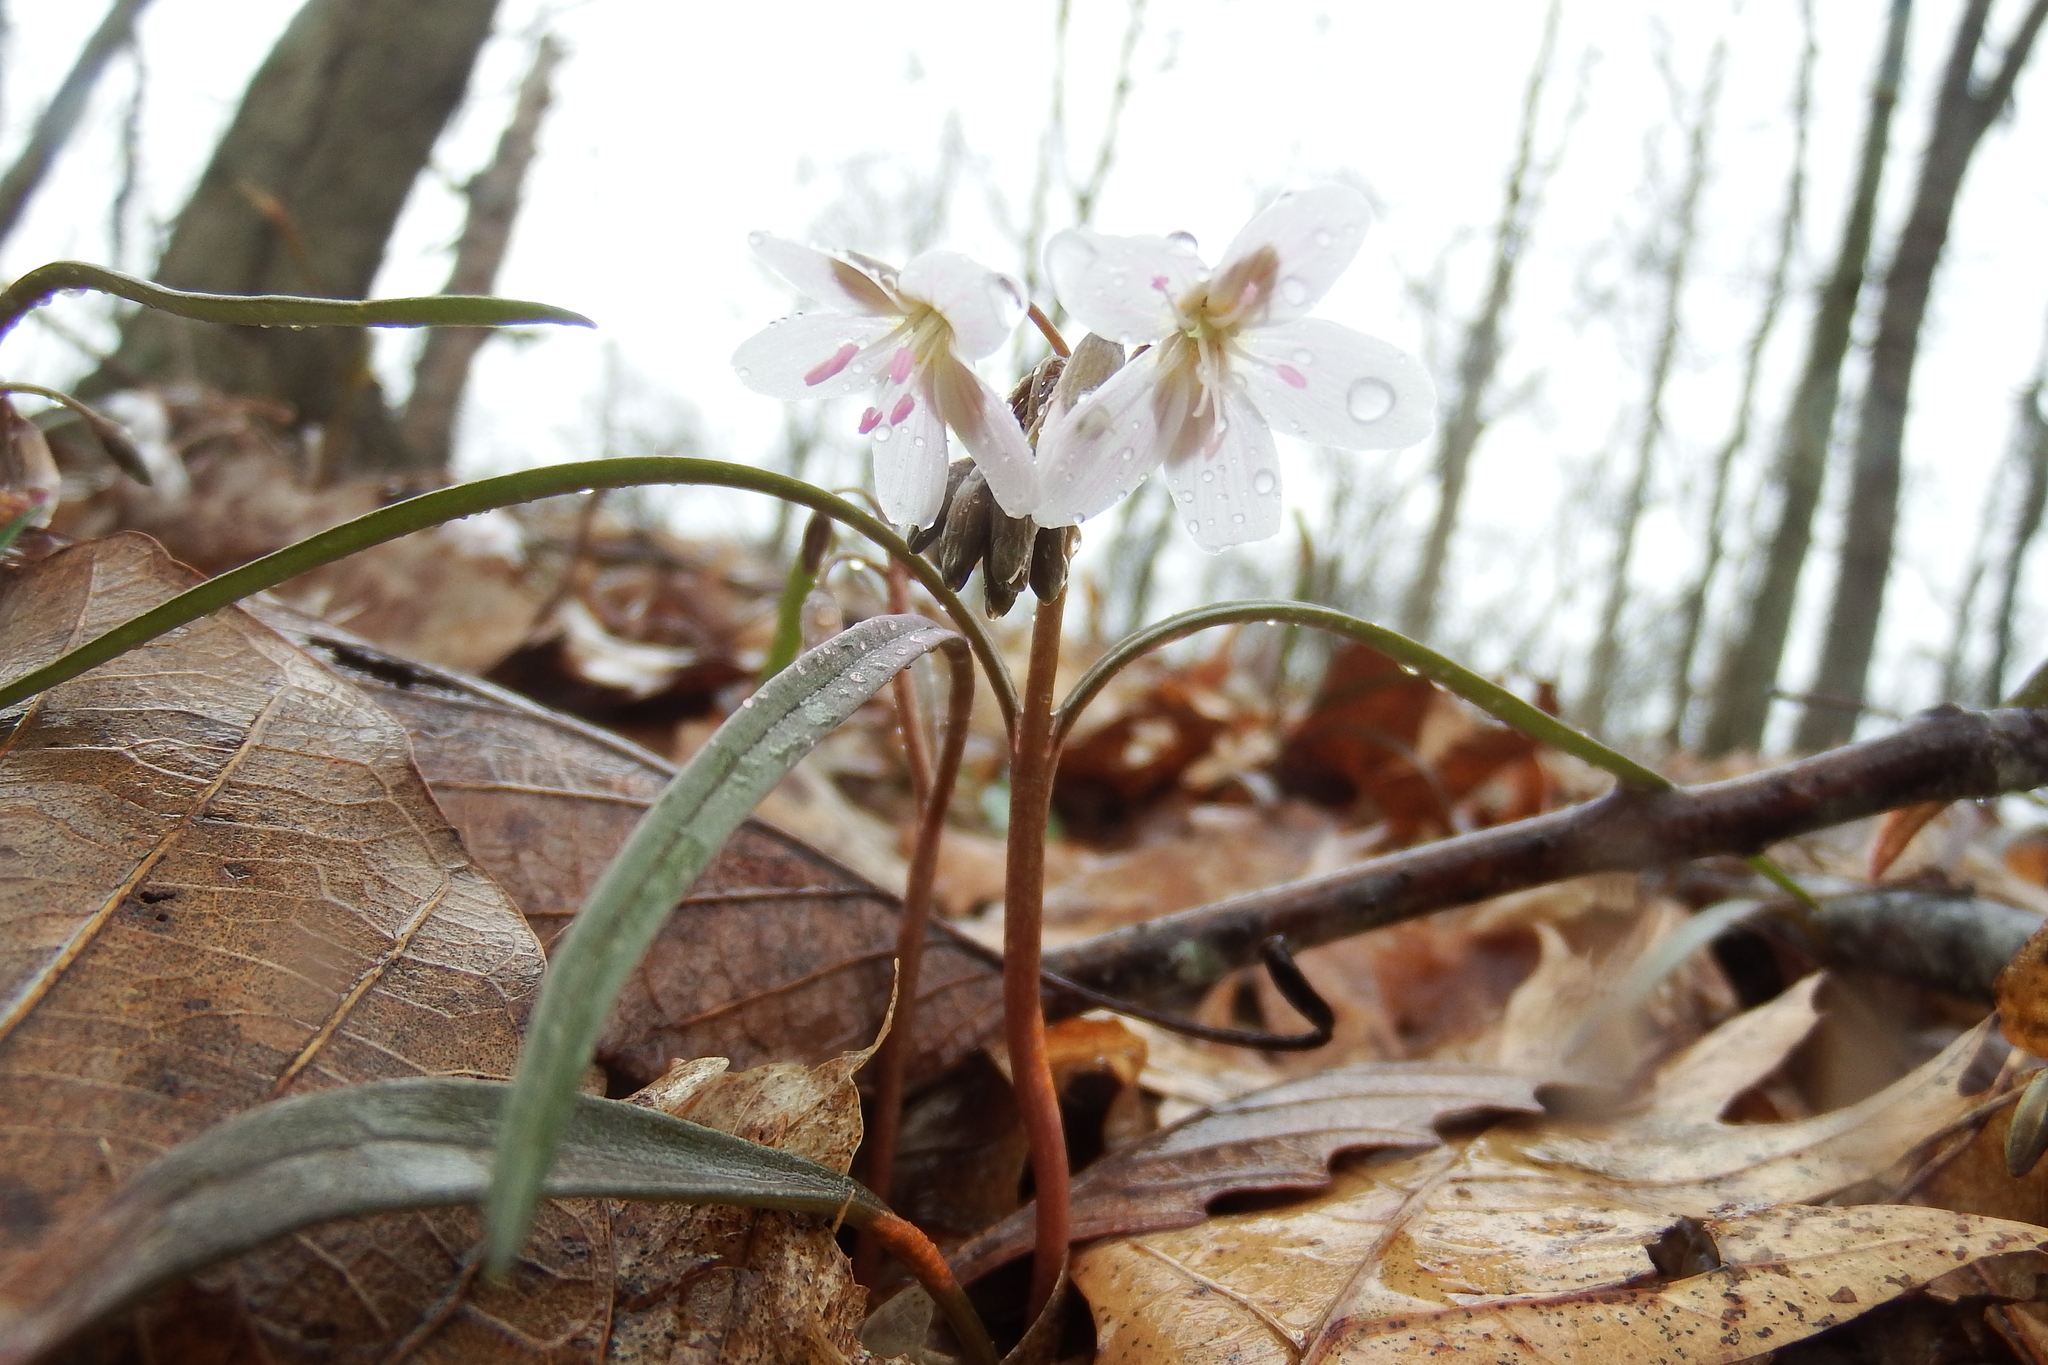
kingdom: Plantae
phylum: Tracheophyta
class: Magnoliopsida
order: Caryophyllales
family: Montiaceae
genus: Claytonia
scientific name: Claytonia virginica
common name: Virginia springbeauty
